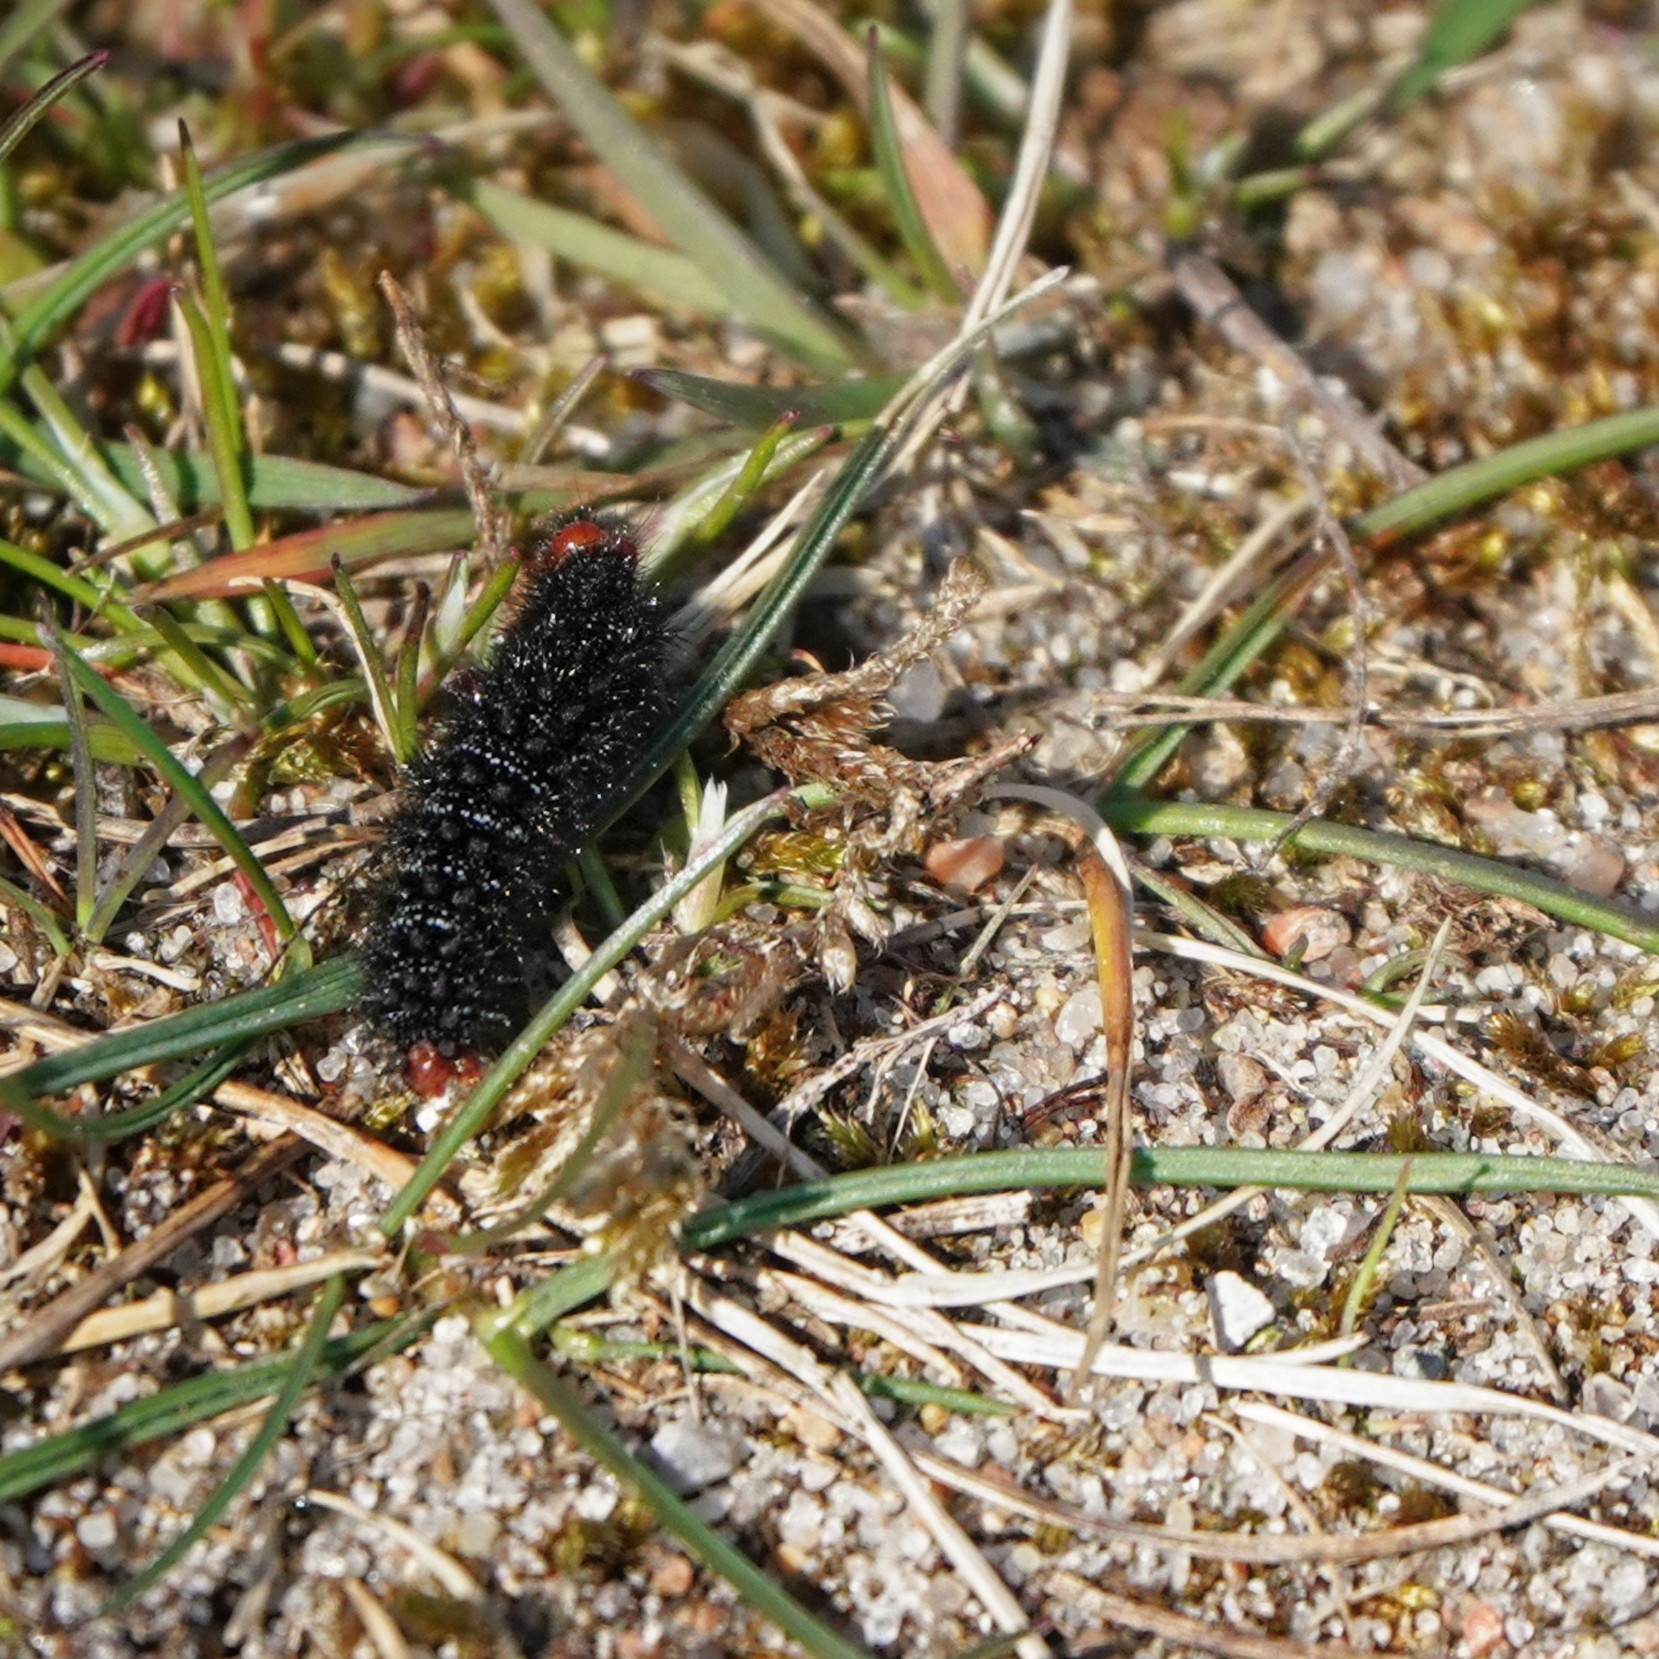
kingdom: Animalia
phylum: Arthropoda
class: Insecta
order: Lepidoptera
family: Nymphalidae
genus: Melitaea
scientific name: Melitaea cinxia
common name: Glanville fritillary
